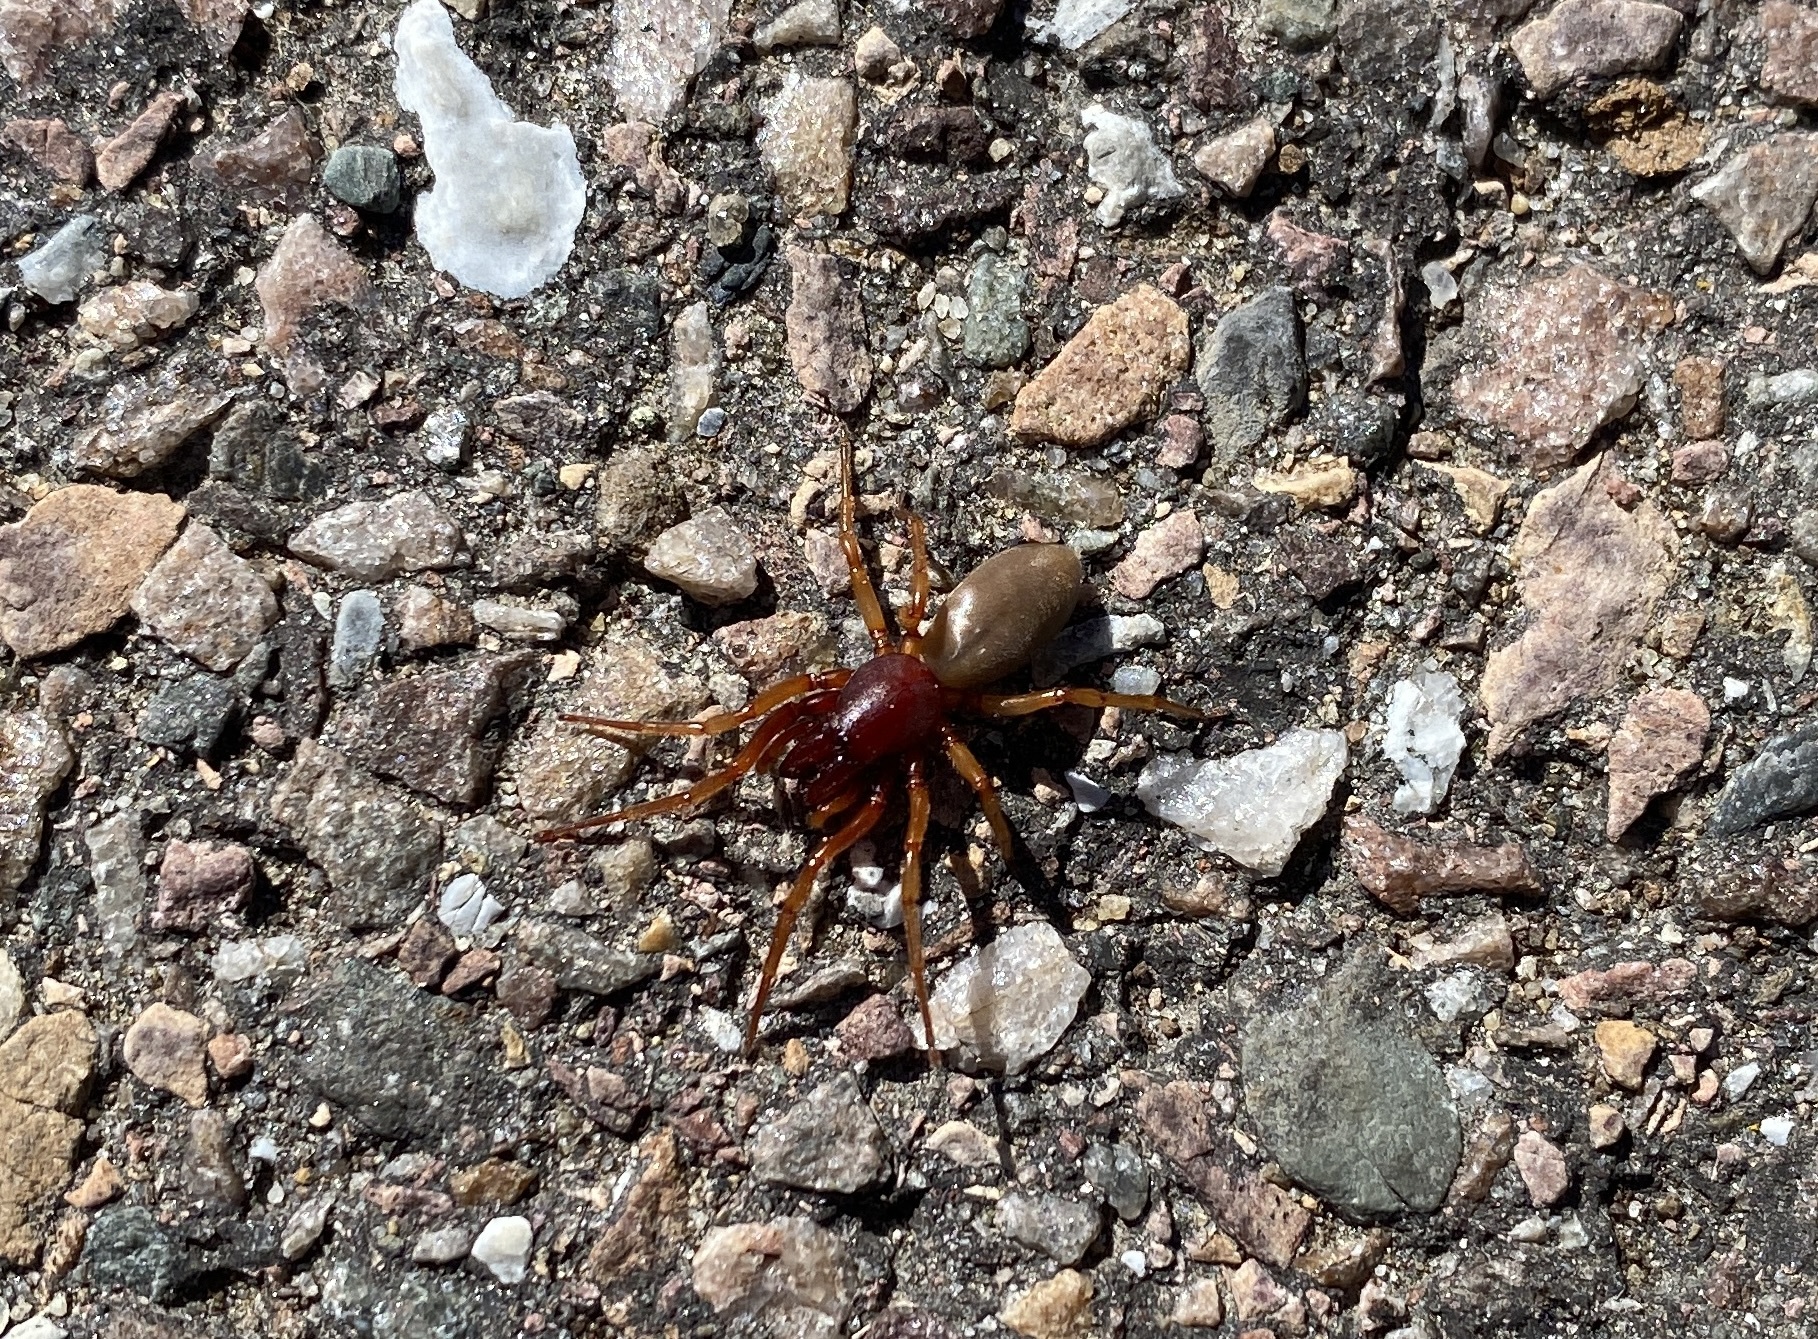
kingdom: Animalia
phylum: Arthropoda
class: Arachnida
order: Araneae
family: Dysderidae
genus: Dysdera
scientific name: Dysdera crocata
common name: Woodlouse spider
